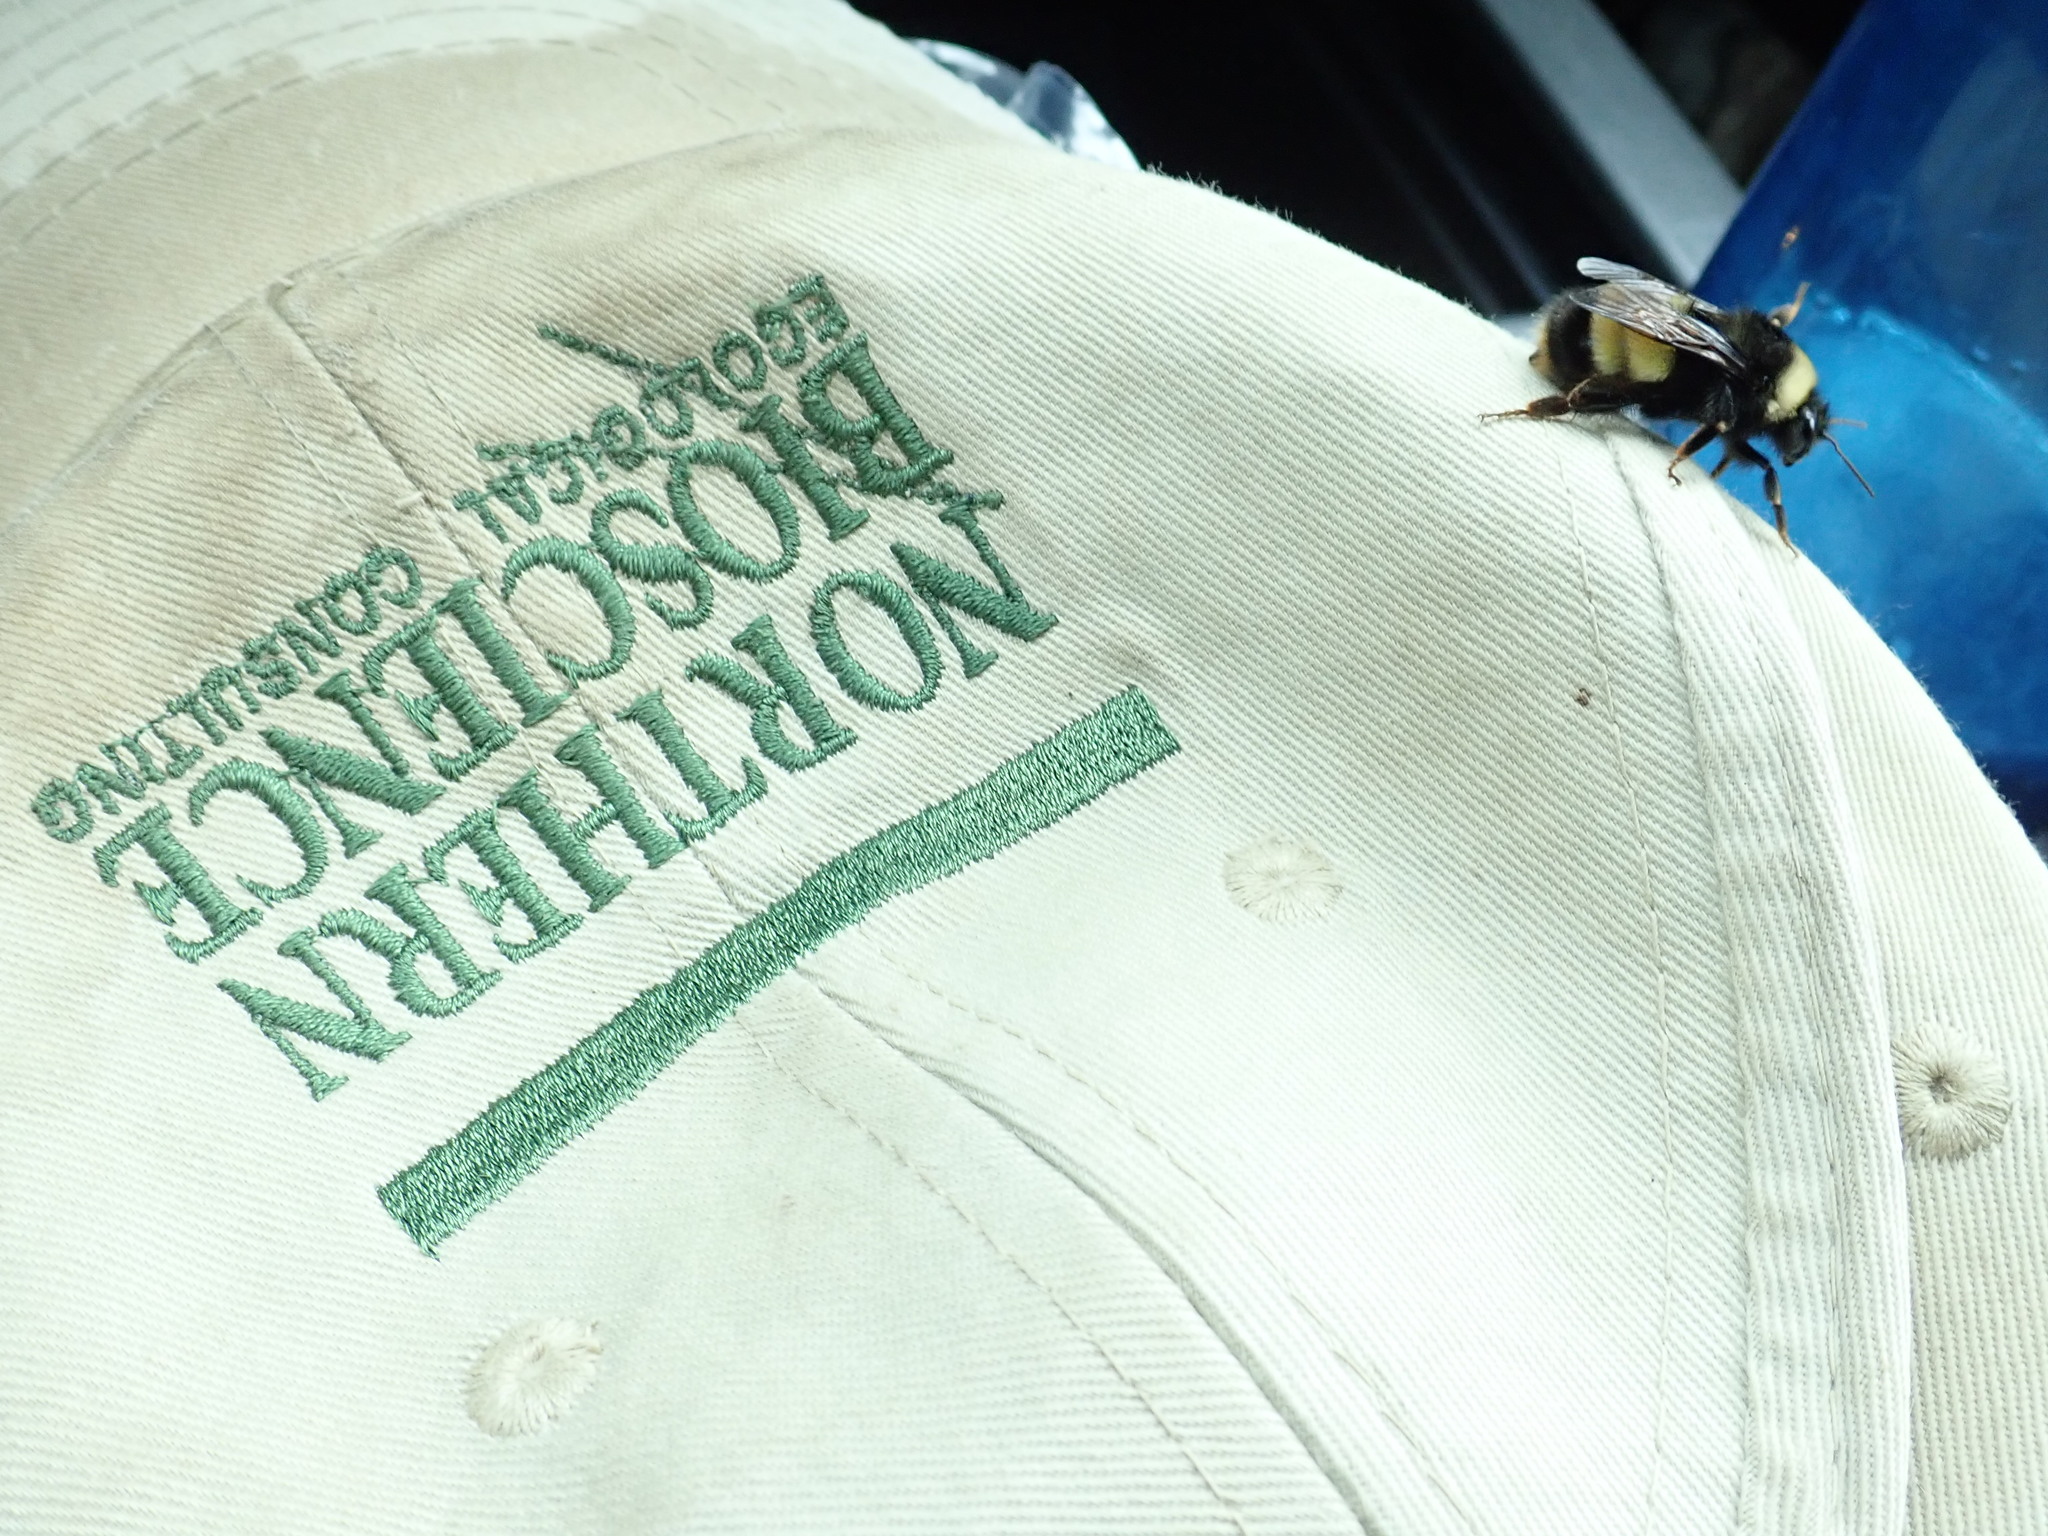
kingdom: Animalia
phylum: Arthropoda
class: Insecta
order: Hymenoptera
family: Apidae
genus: Bombus
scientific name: Bombus terricola
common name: Yellow-banded bumble bee
